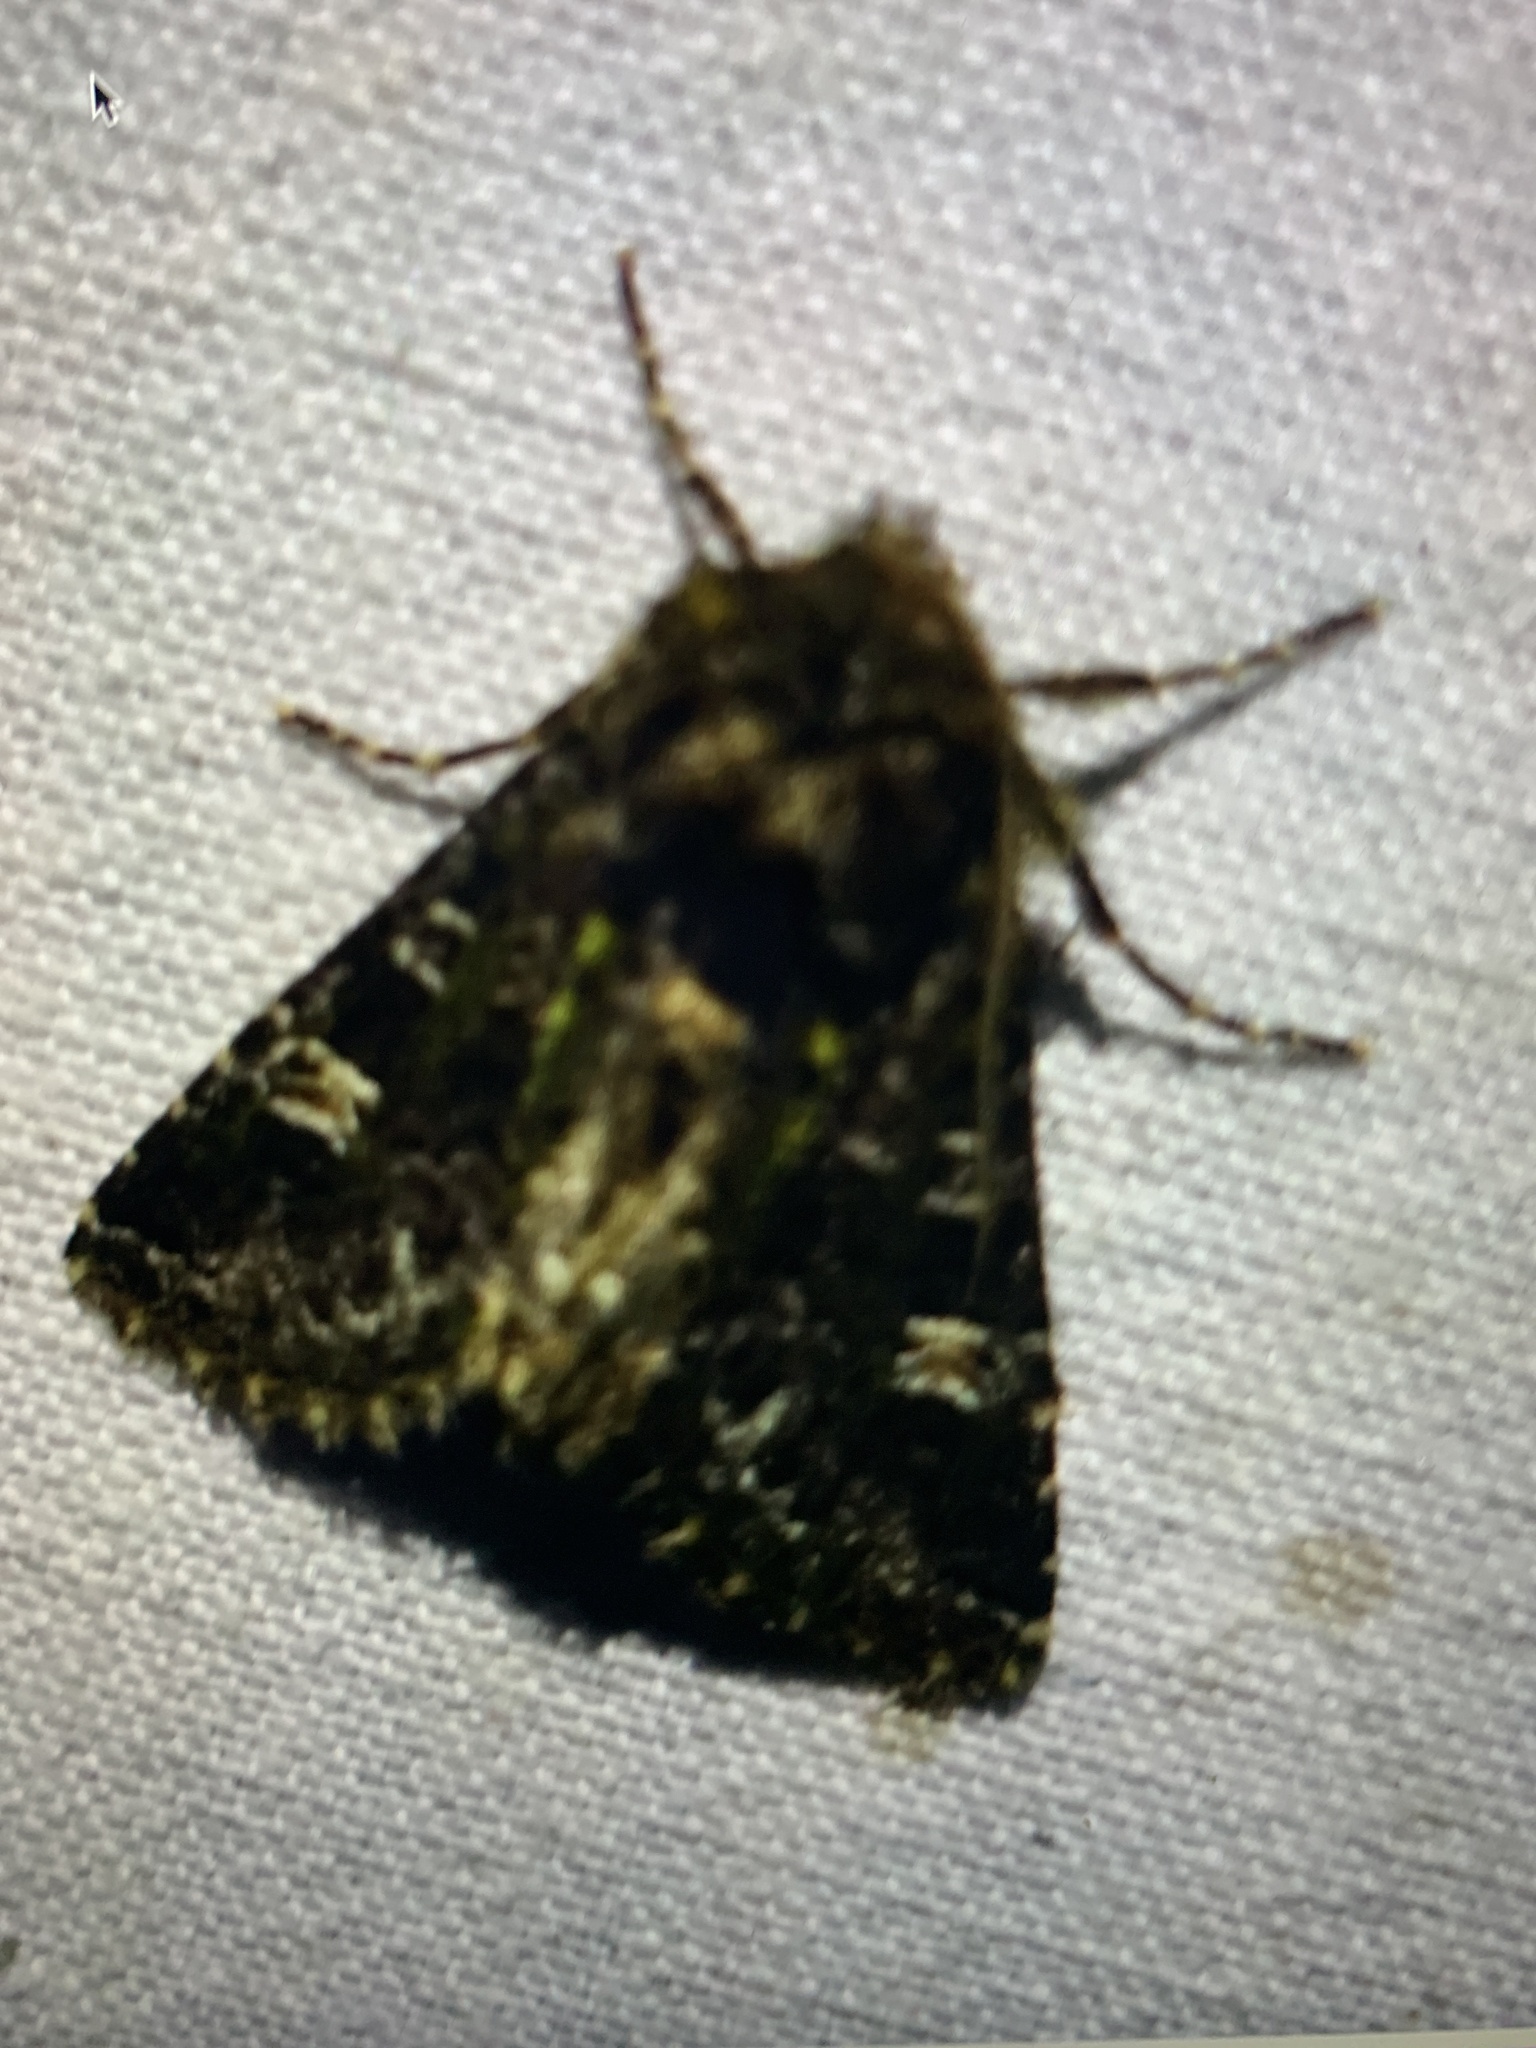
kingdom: Animalia
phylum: Arthropoda
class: Insecta
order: Lepidoptera
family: Noctuidae
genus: Valeria
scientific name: Valeria jaspidea
